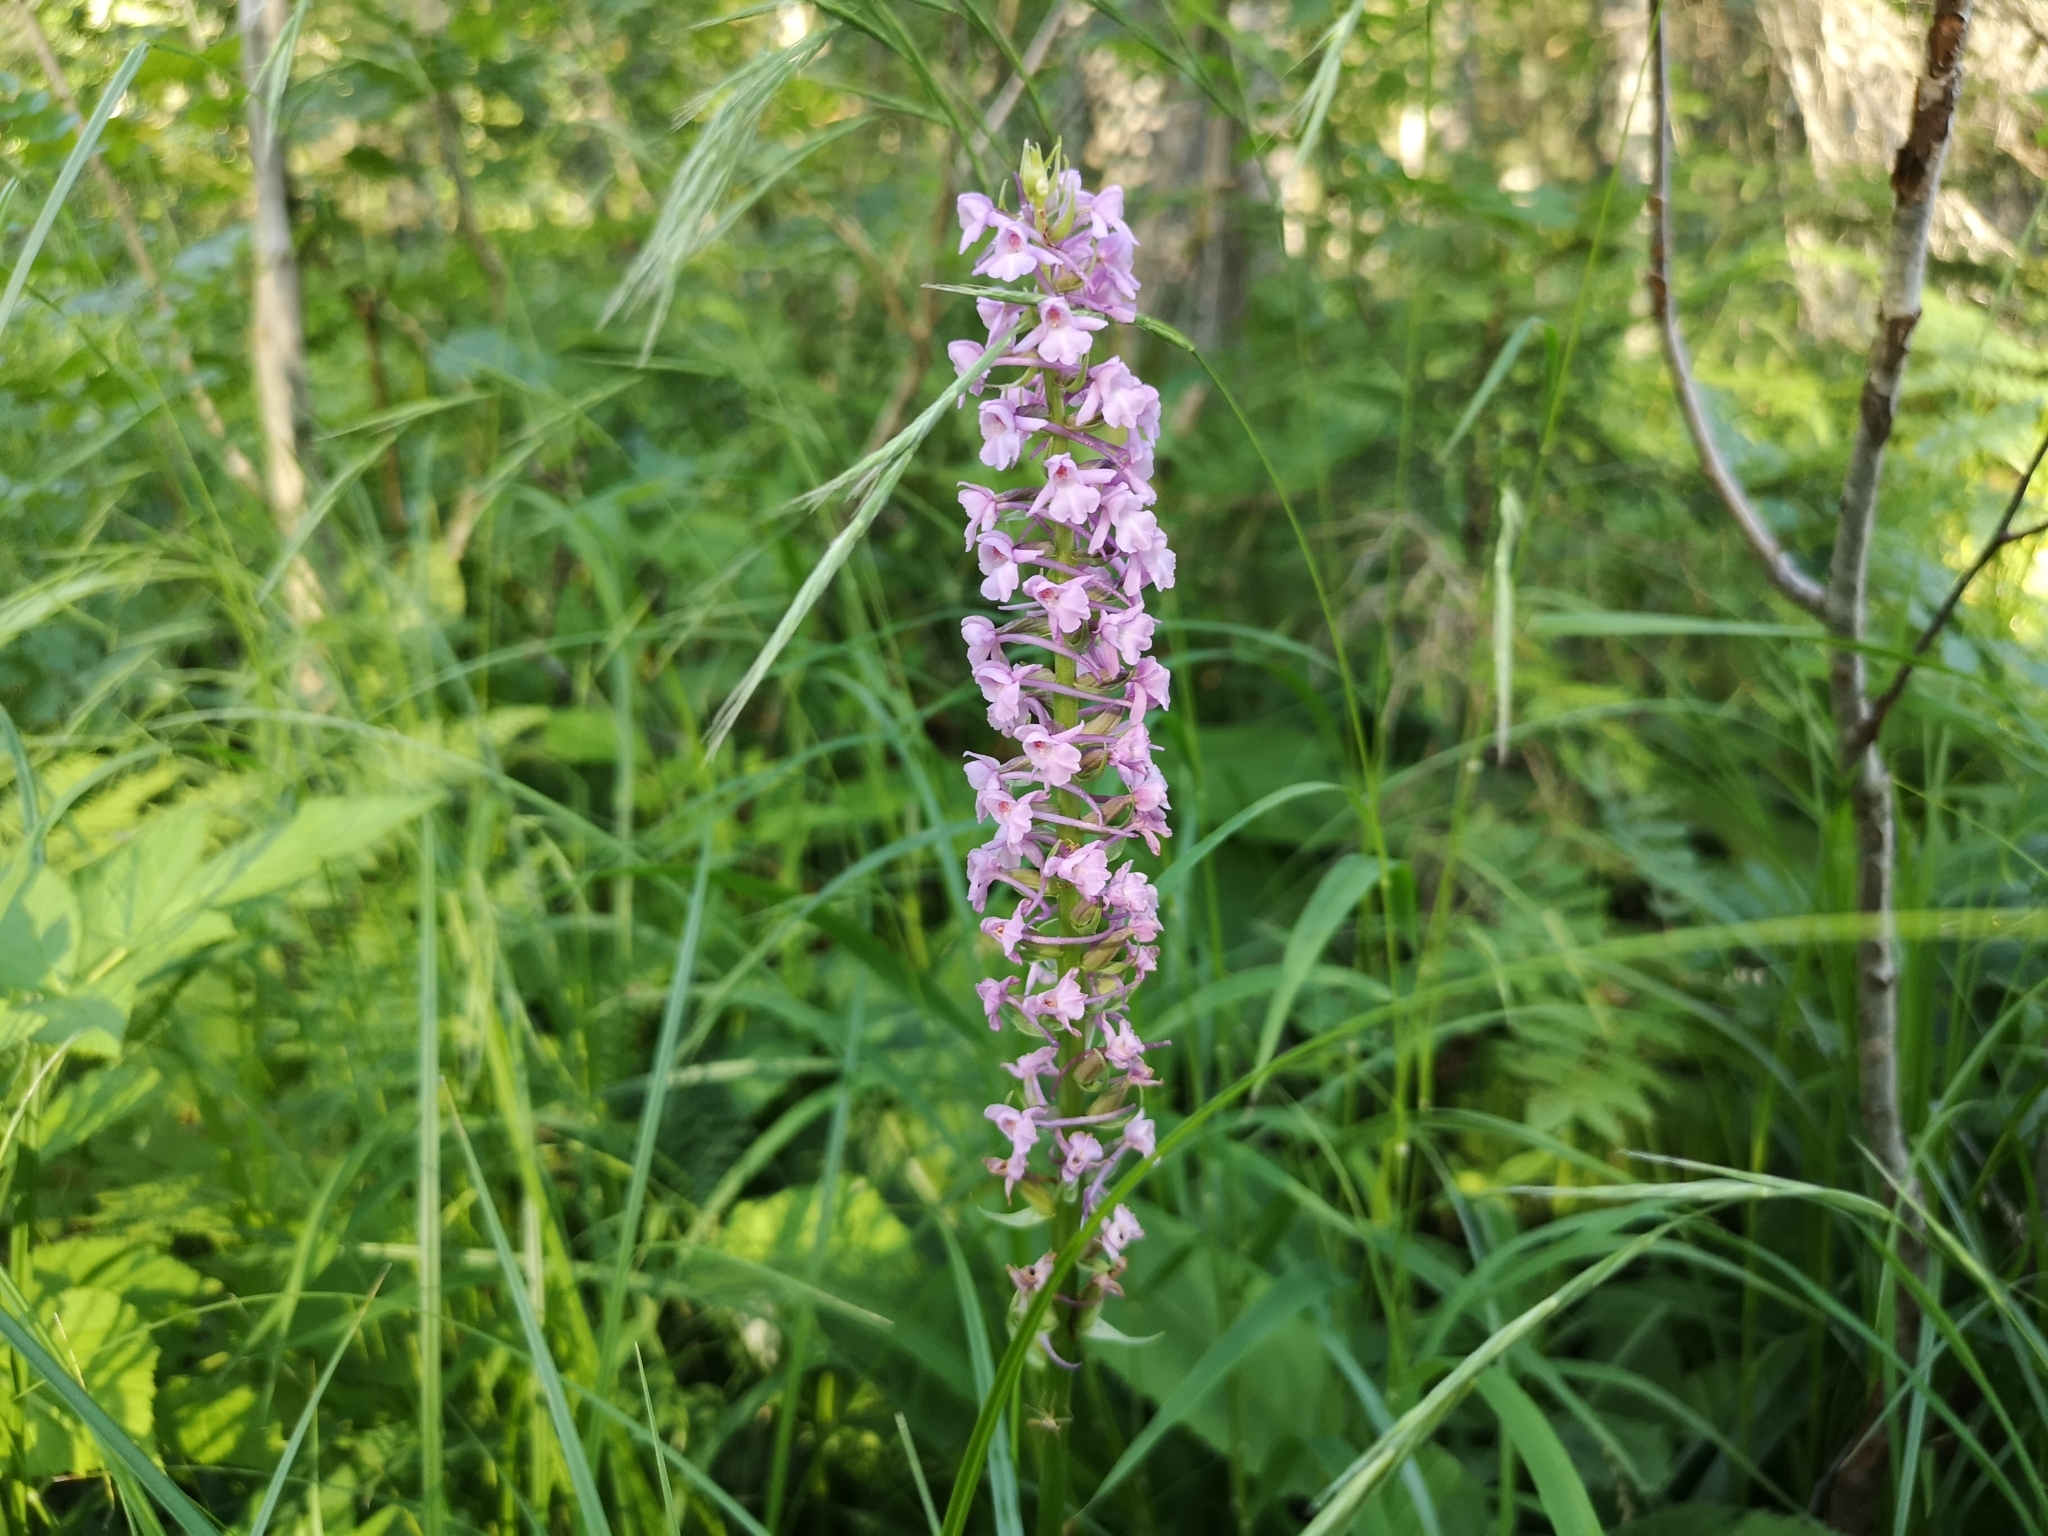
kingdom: Plantae
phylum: Tracheophyta
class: Liliopsida
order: Asparagales
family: Orchidaceae
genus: Gymnadenia
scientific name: Gymnadenia conopsea
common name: Fragrant orchid
